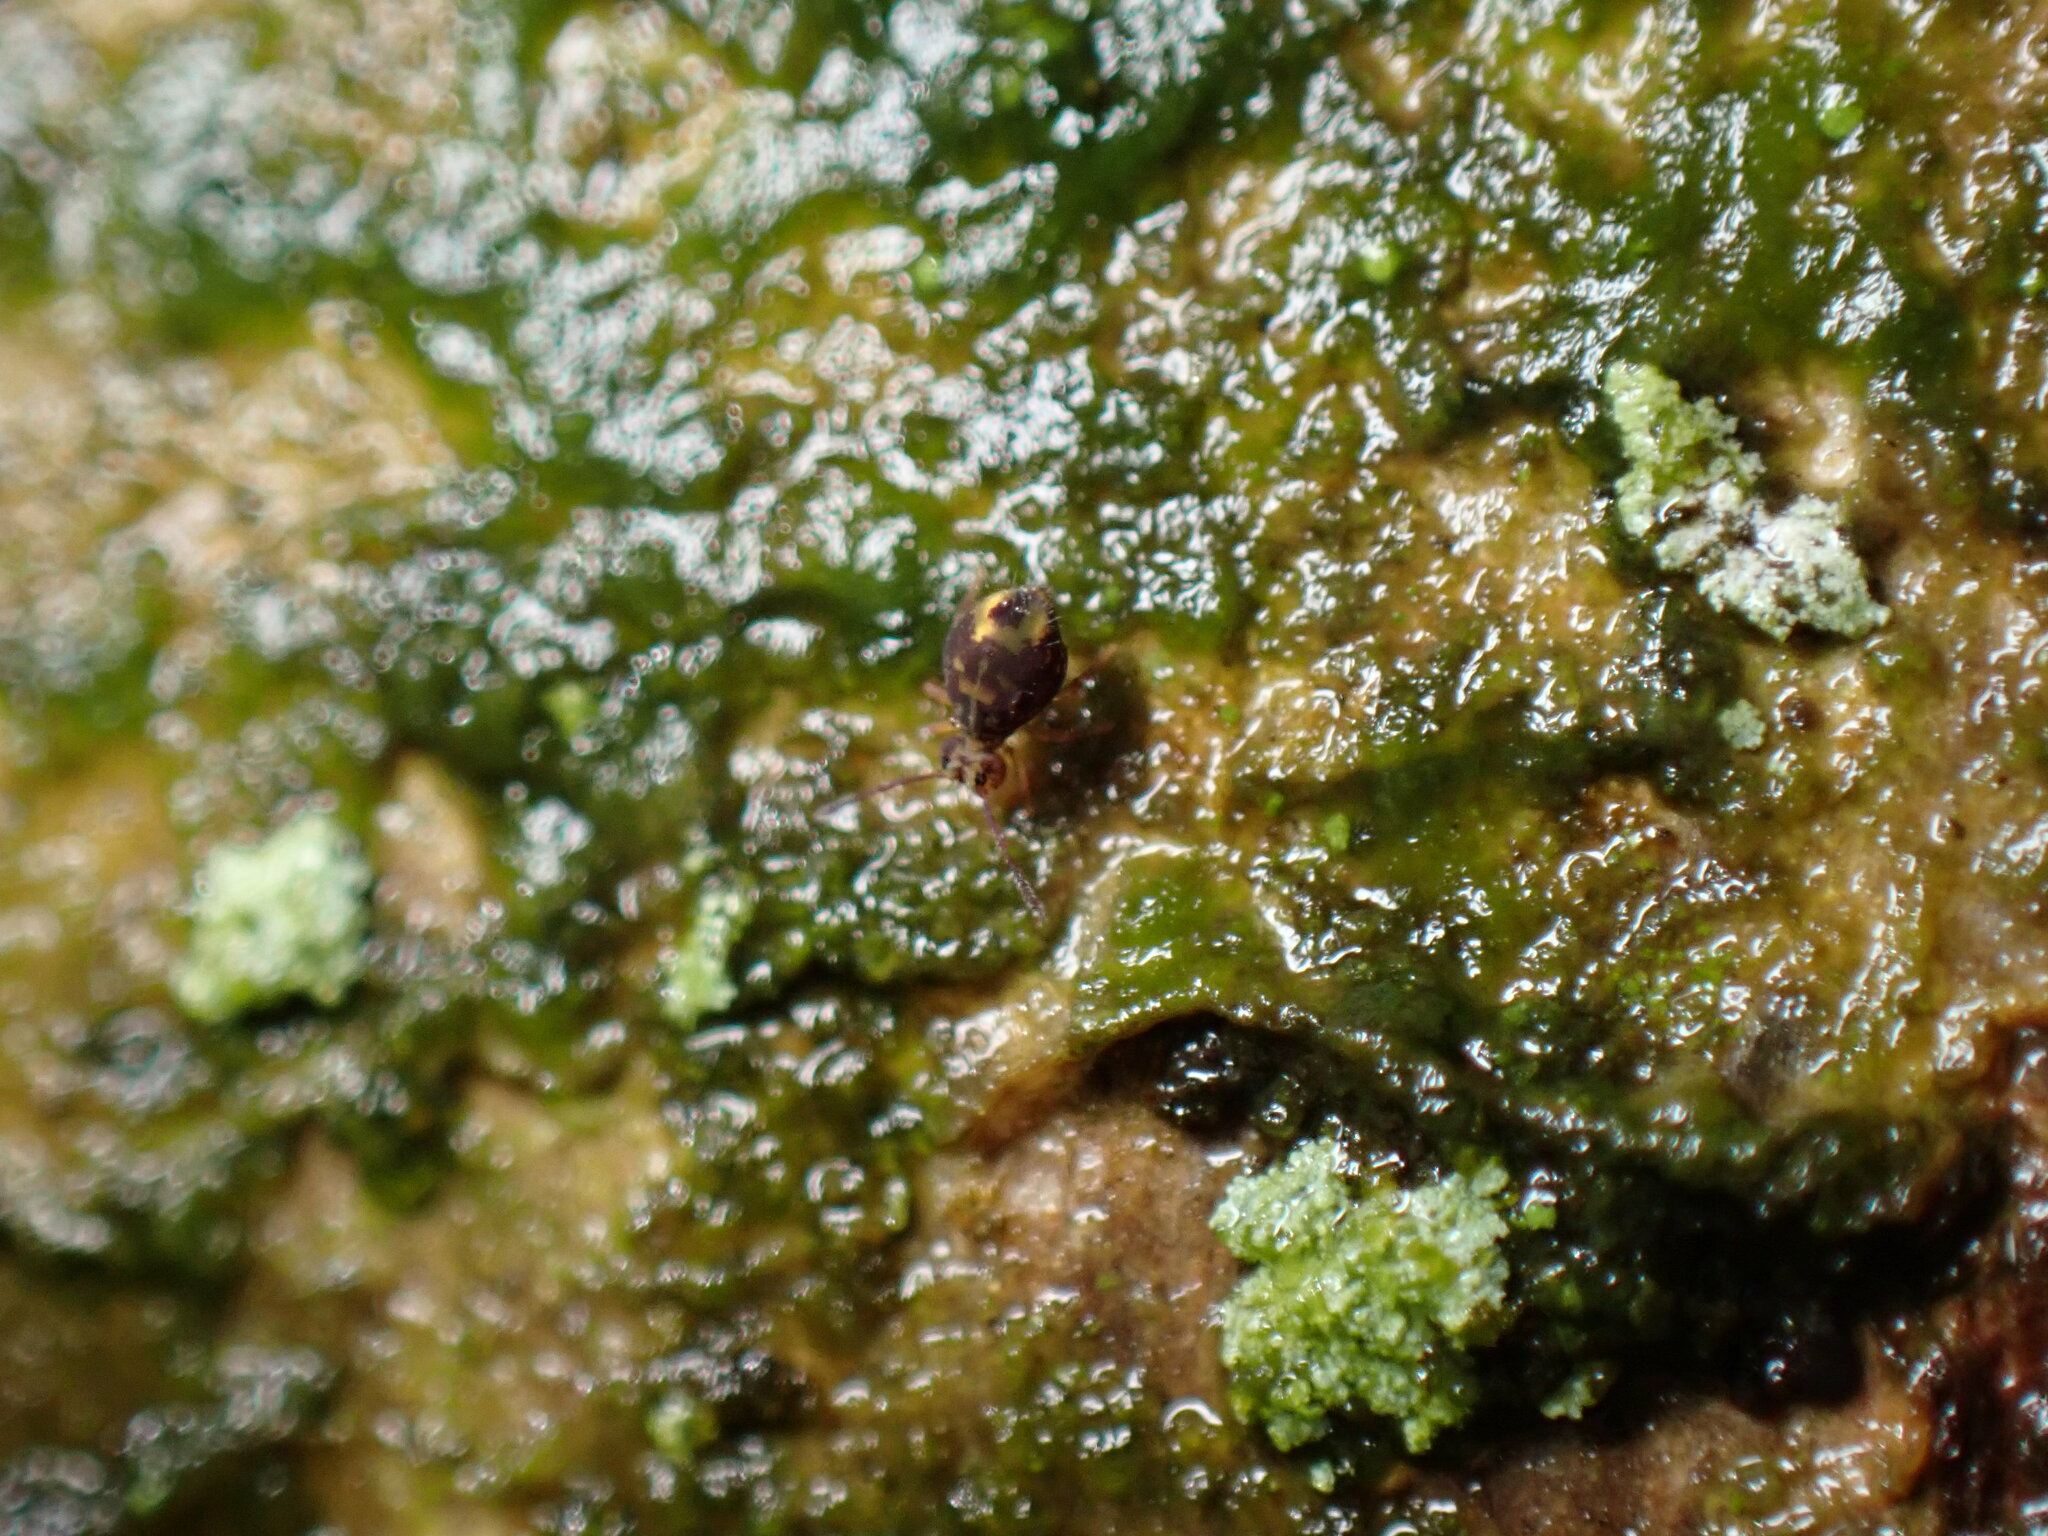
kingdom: Animalia
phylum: Arthropoda
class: Collembola
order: Symphypleona
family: Dicyrtomidae
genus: Dicyrtomina
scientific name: Dicyrtomina saundersi
